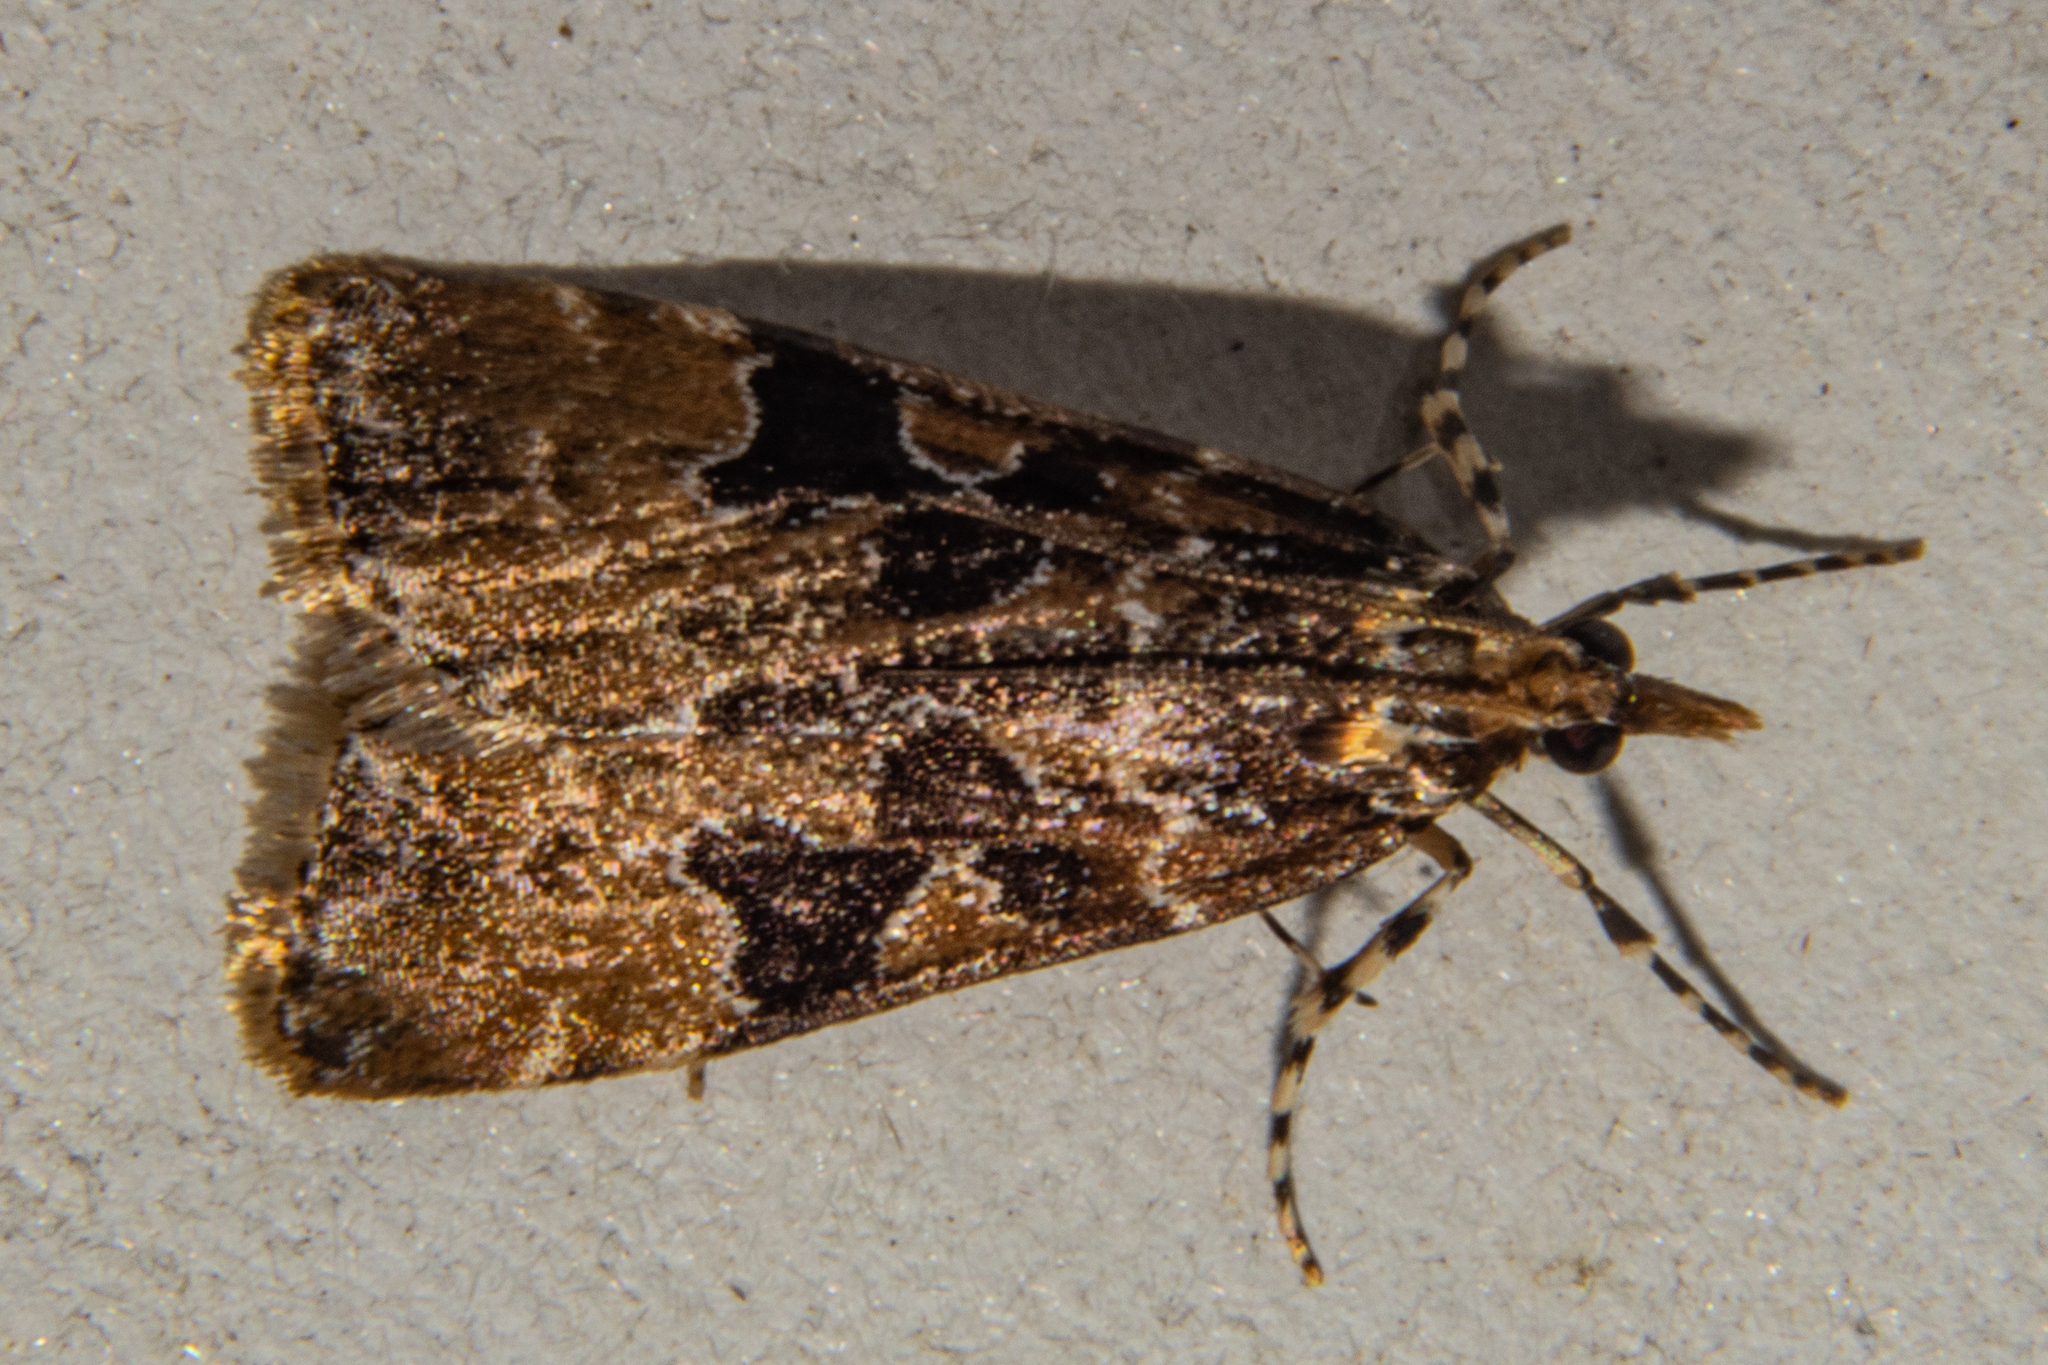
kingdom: Animalia
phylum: Arthropoda
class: Insecta
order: Lepidoptera
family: Crambidae
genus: Scoparia
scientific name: Scoparia ustimacula
